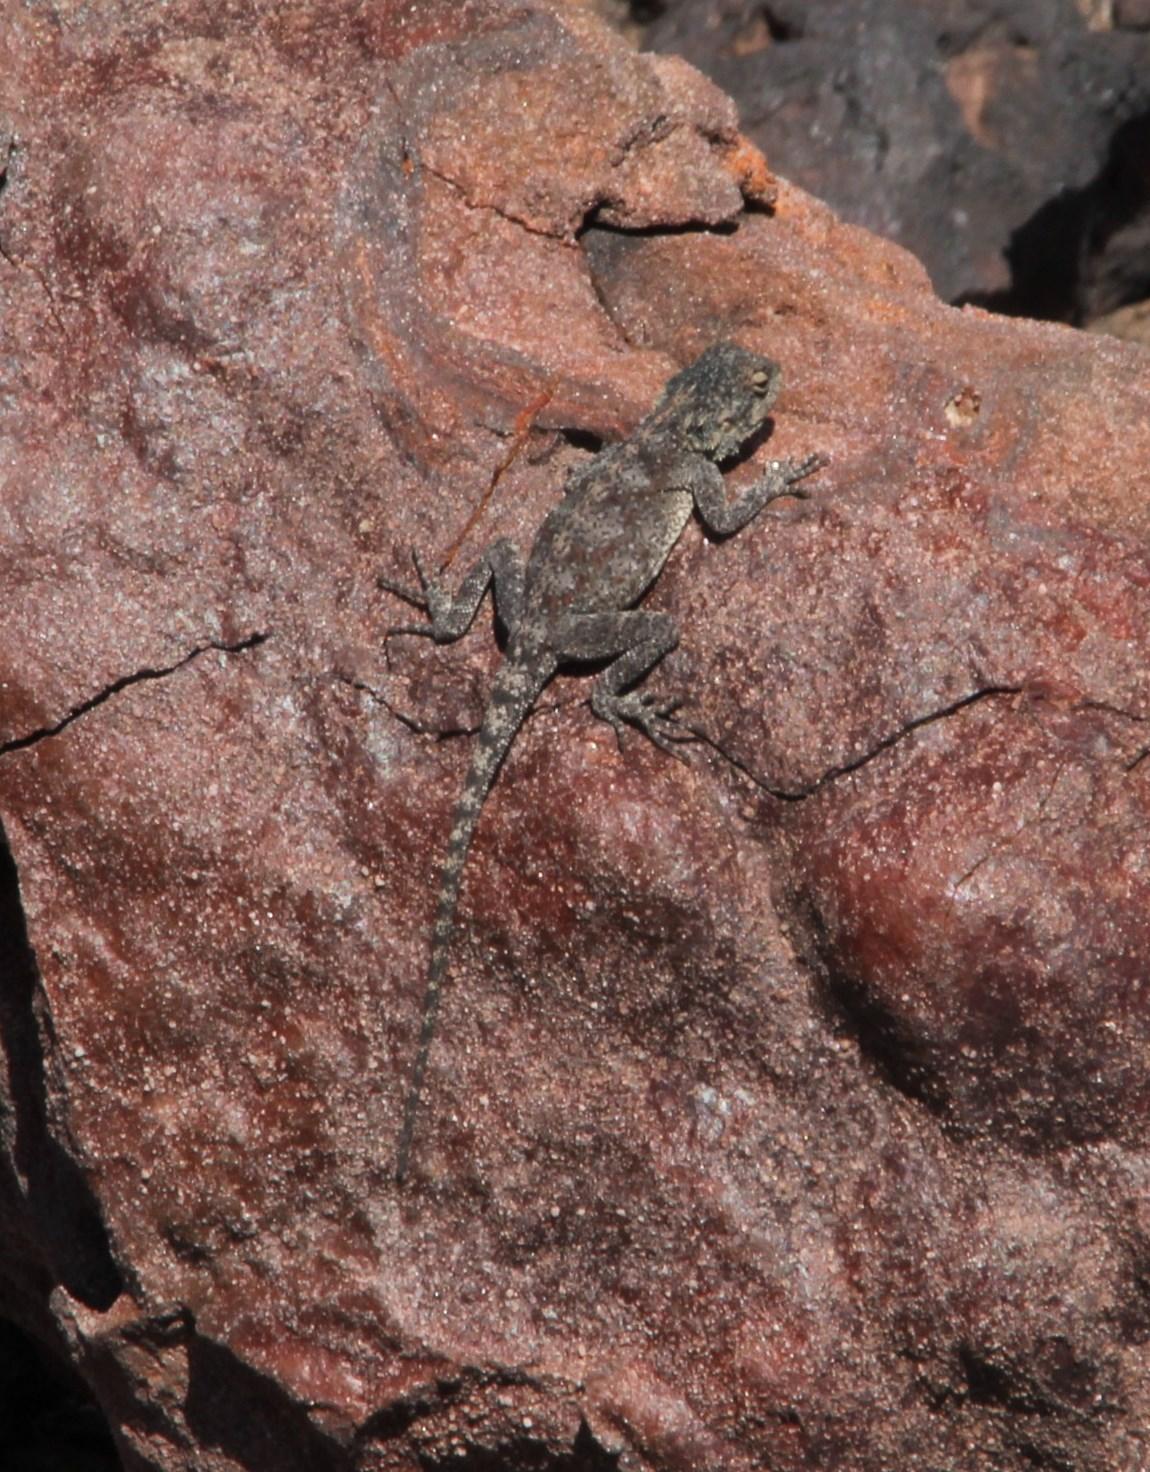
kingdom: Animalia
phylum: Chordata
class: Squamata
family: Agamidae
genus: Agama
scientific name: Agama atra
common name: Southern african rock agama
